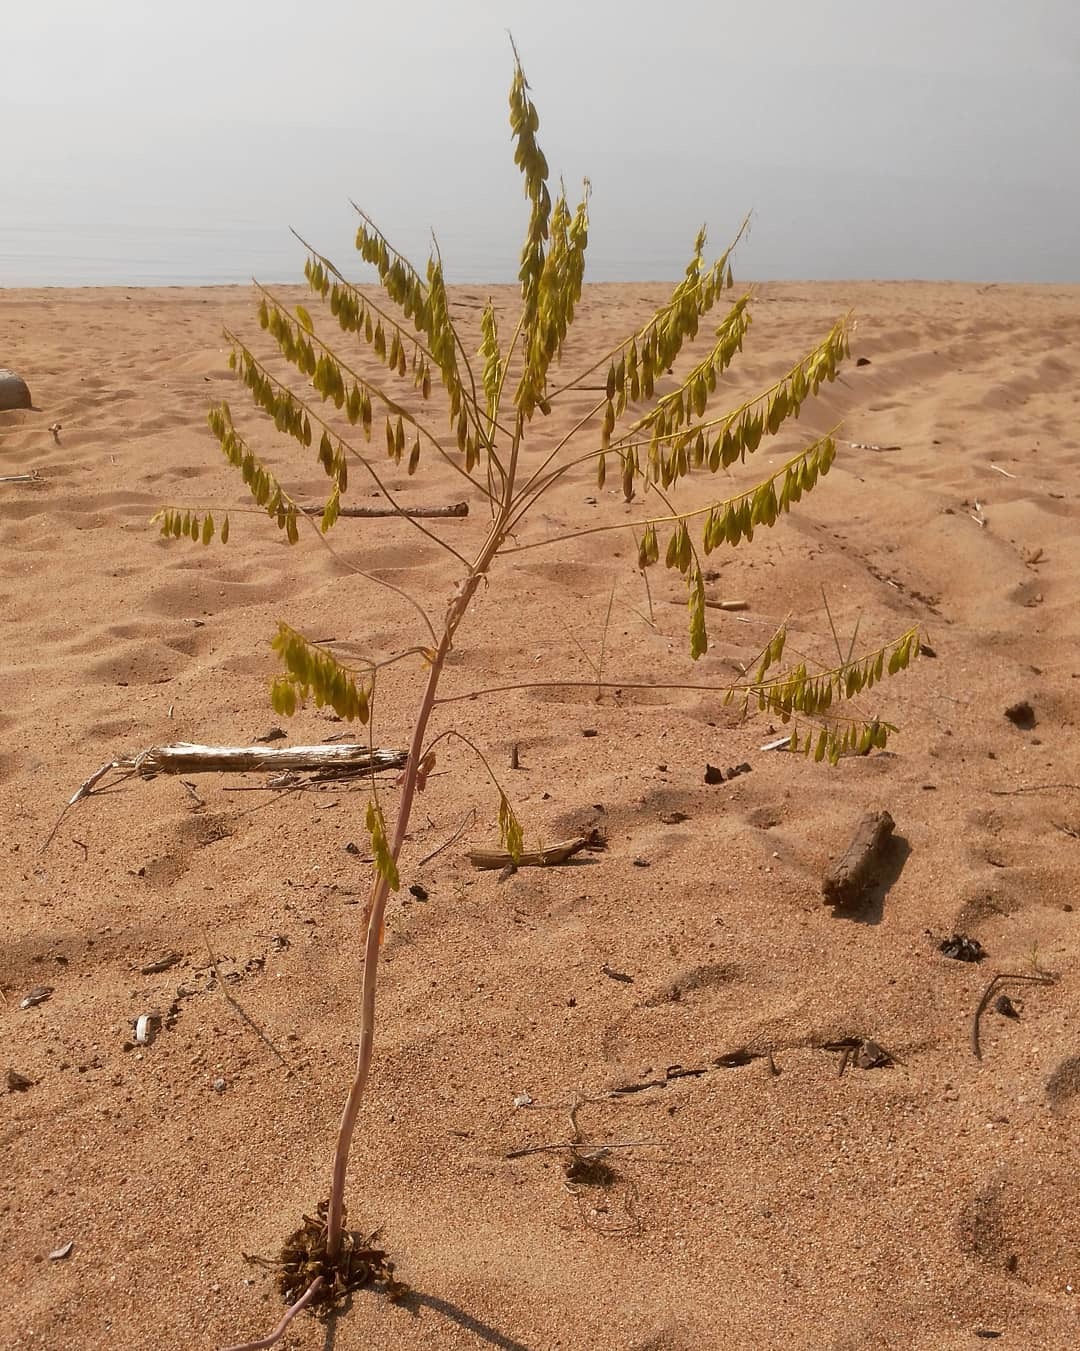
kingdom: Plantae
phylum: Tracheophyta
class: Magnoliopsida
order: Brassicales
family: Brassicaceae
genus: Isatis
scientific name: Isatis tinctoria
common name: Woad
